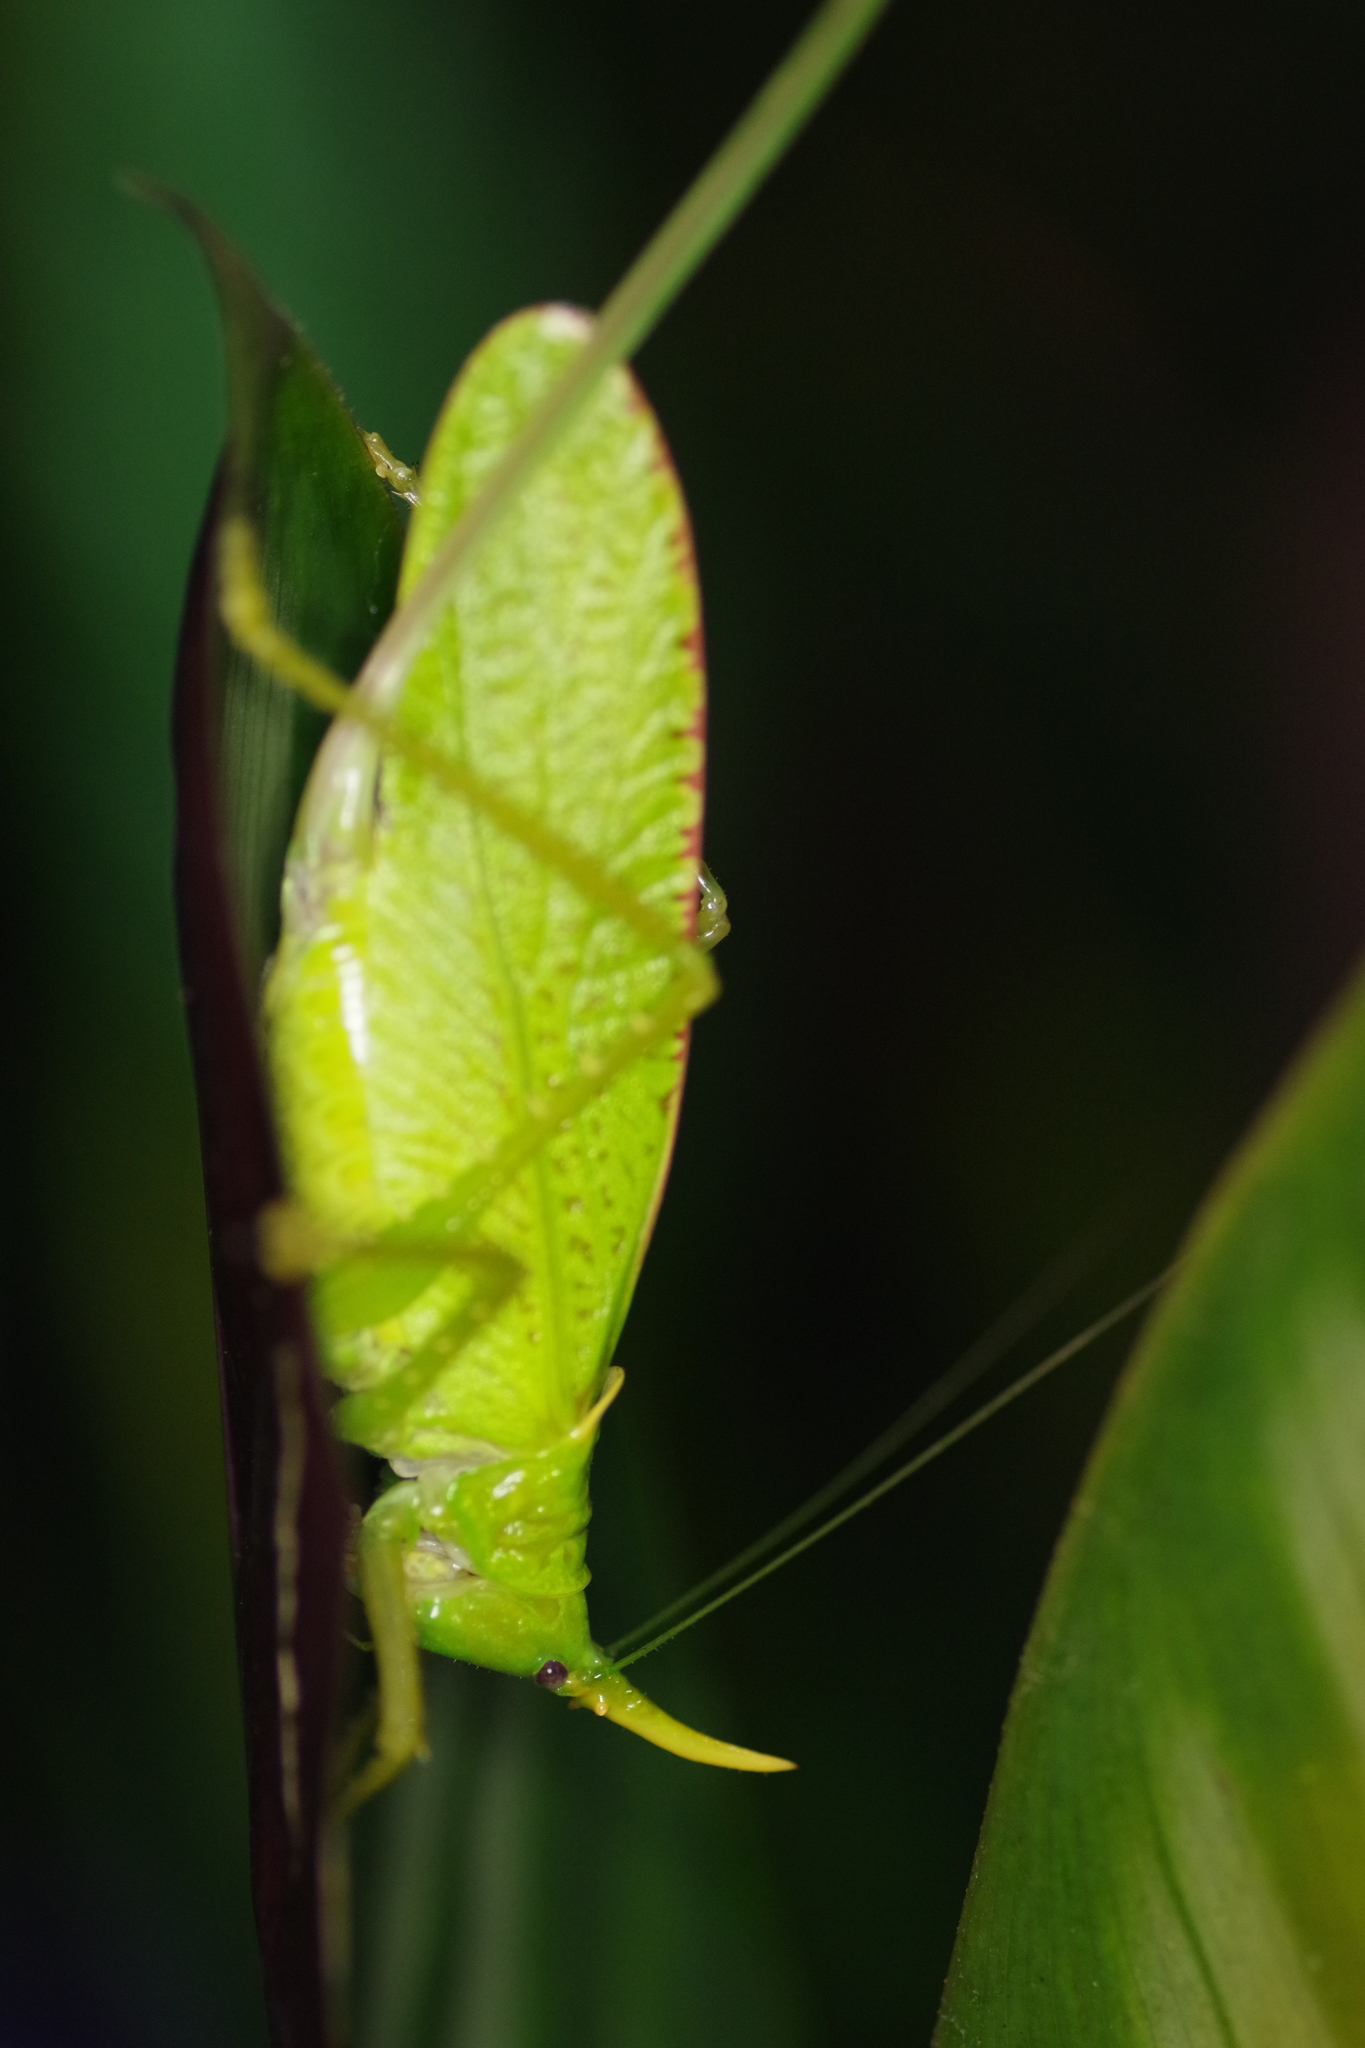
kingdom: Animalia
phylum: Arthropoda
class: Insecta
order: Orthoptera
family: Tettigoniidae
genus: Copiphora
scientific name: Copiphora rhinoceros
